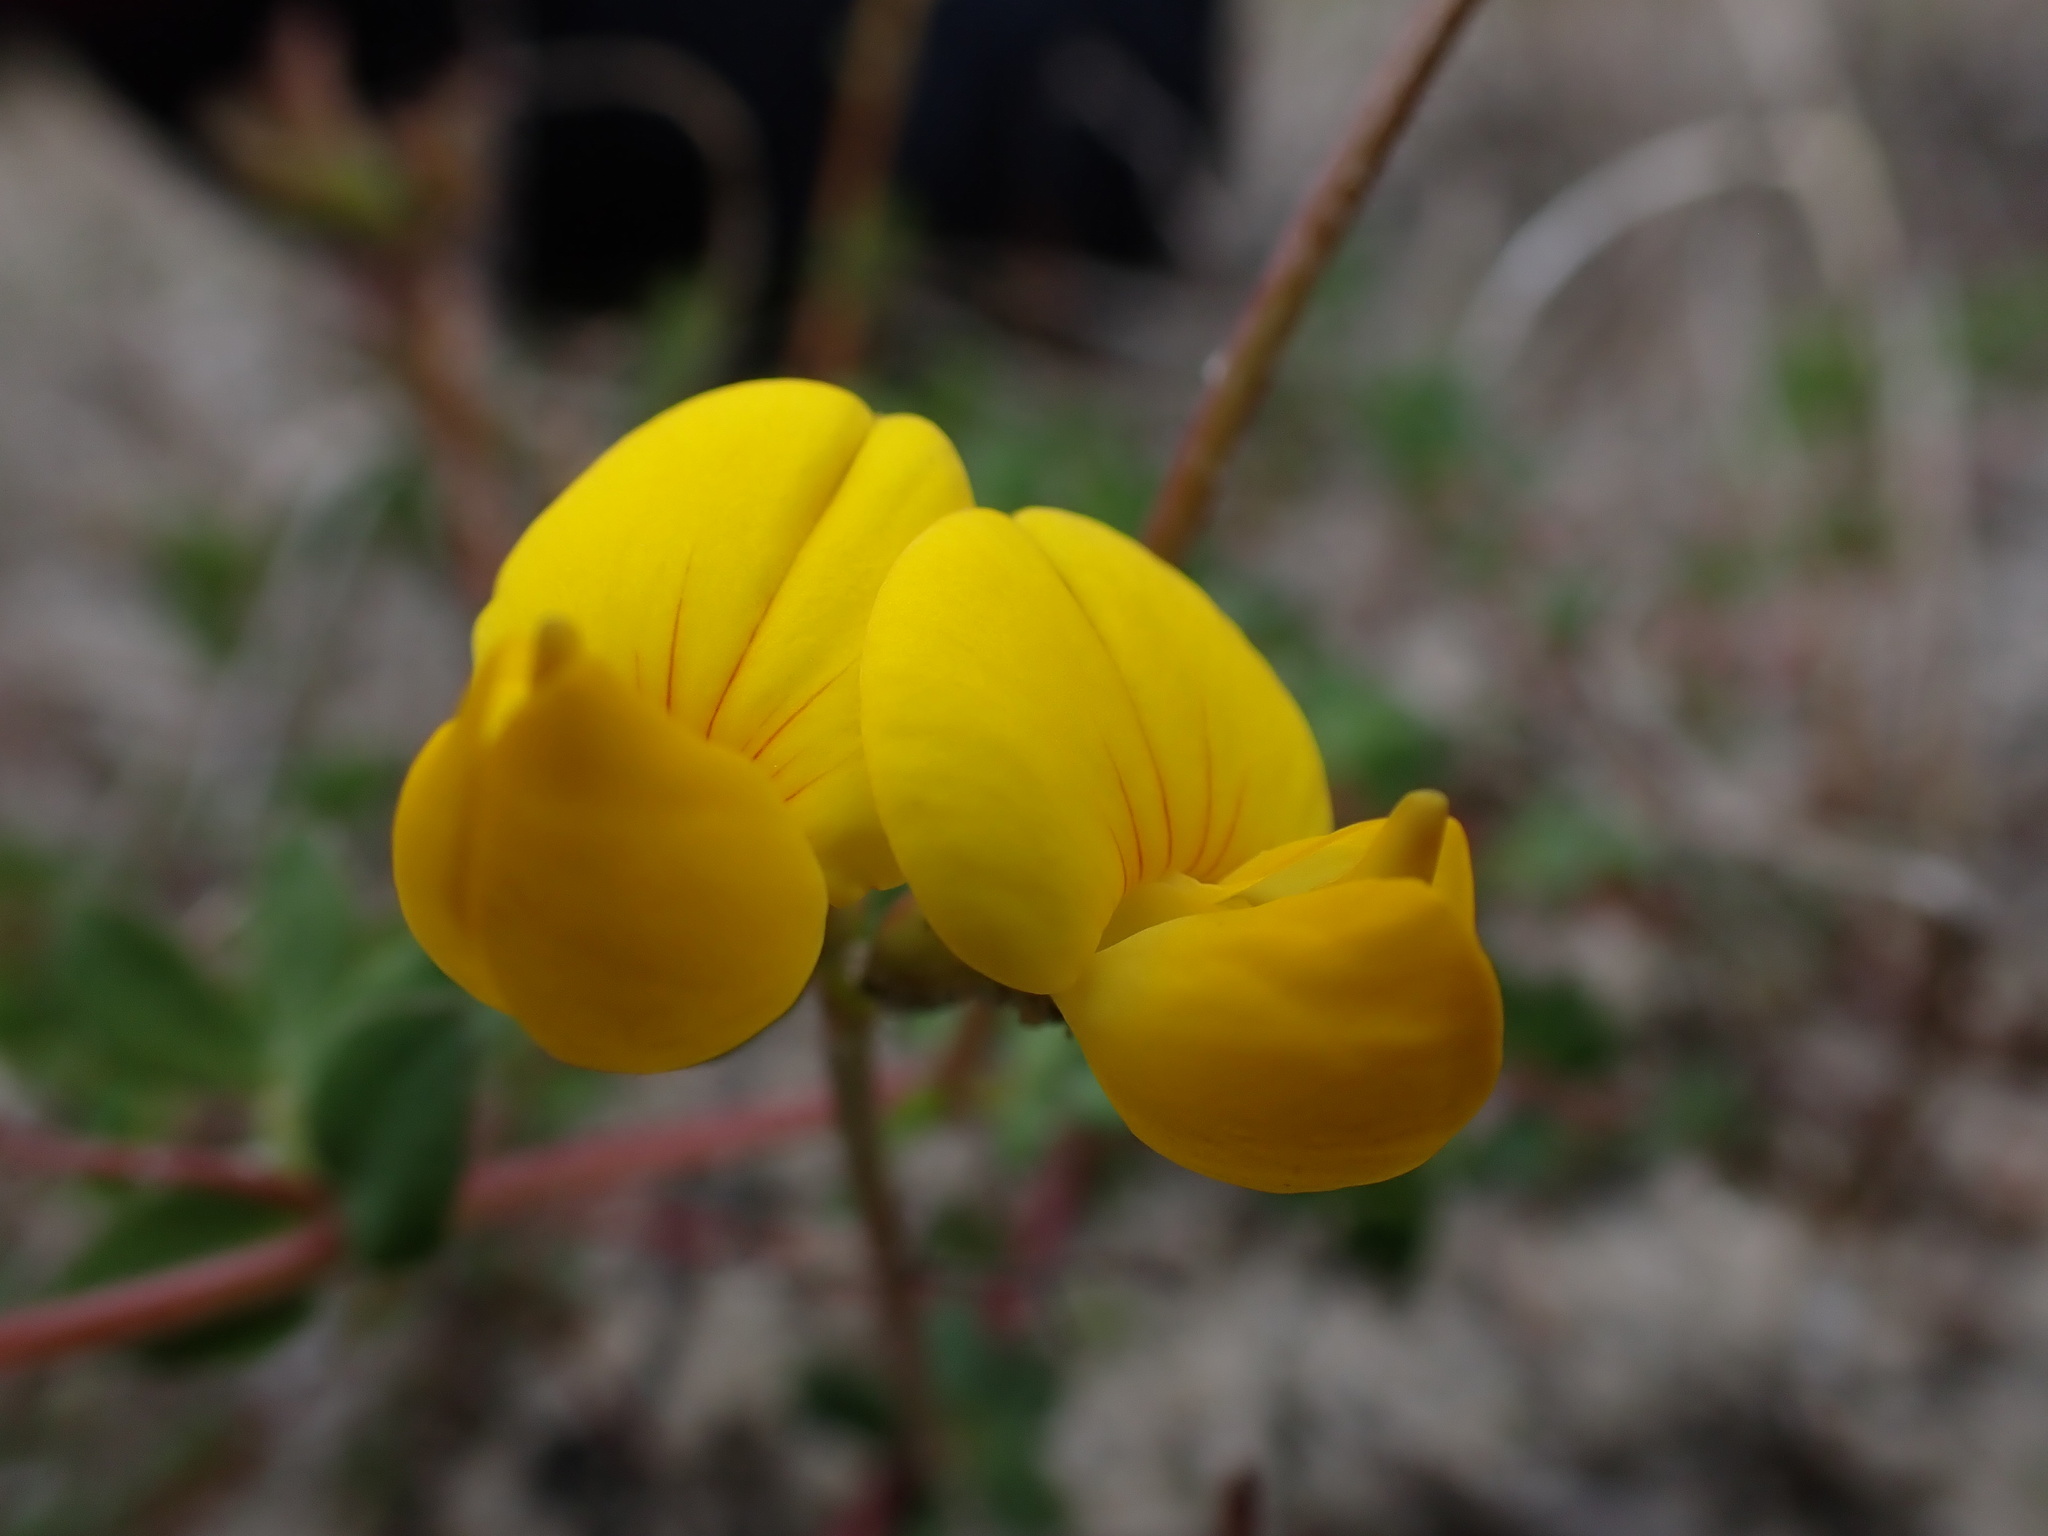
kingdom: Plantae
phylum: Tracheophyta
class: Magnoliopsida
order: Fabales
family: Fabaceae
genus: Lotus
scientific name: Lotus corniculatus
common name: Common bird's-foot-trefoil
